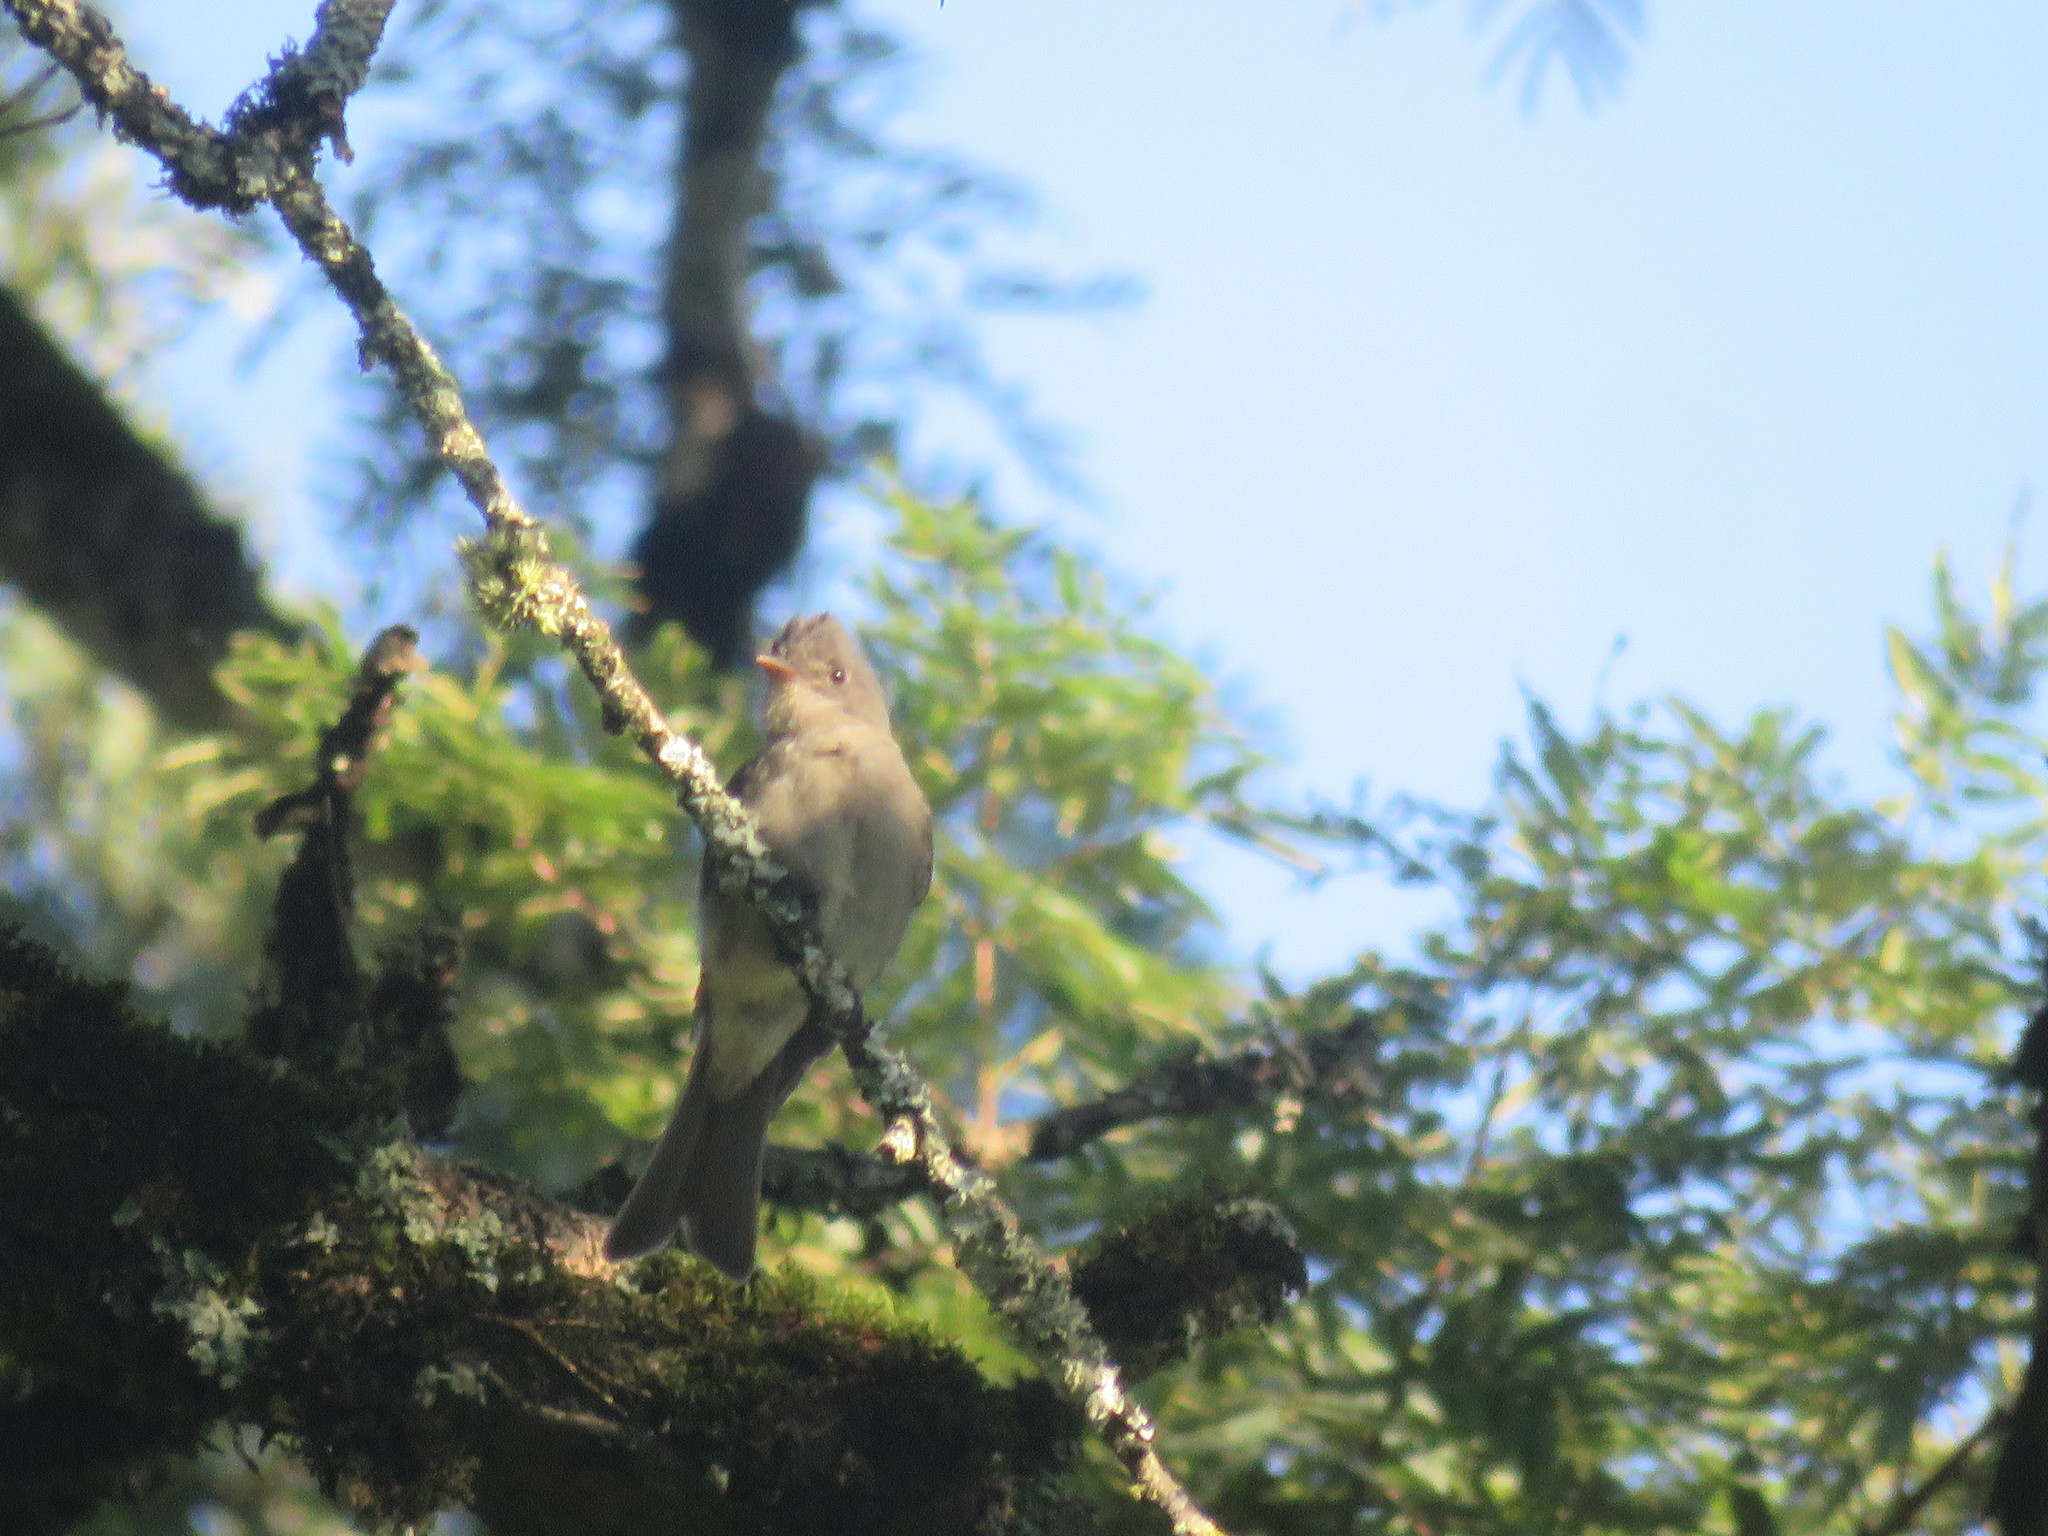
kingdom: Animalia
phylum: Chordata
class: Aves
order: Passeriformes
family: Tyrannidae
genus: Contopus
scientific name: Contopus fumigatus
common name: Smoke-colored pewee
